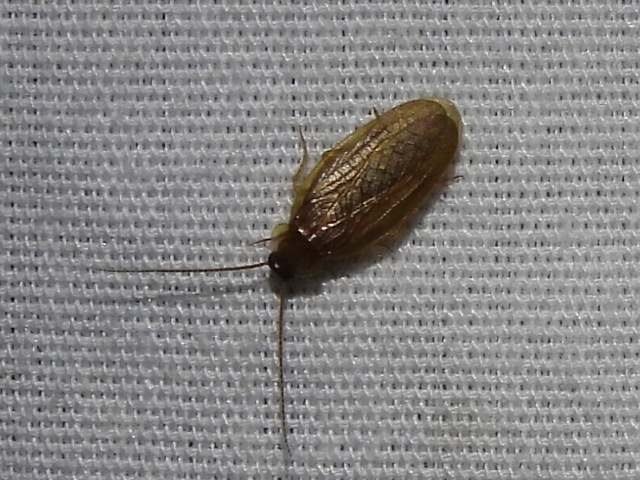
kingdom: Animalia
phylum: Arthropoda
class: Insecta
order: Blattodea
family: Corydiidae
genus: Compsodes
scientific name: Compsodes schwarzi
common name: Schwarz's hooded cockroach
